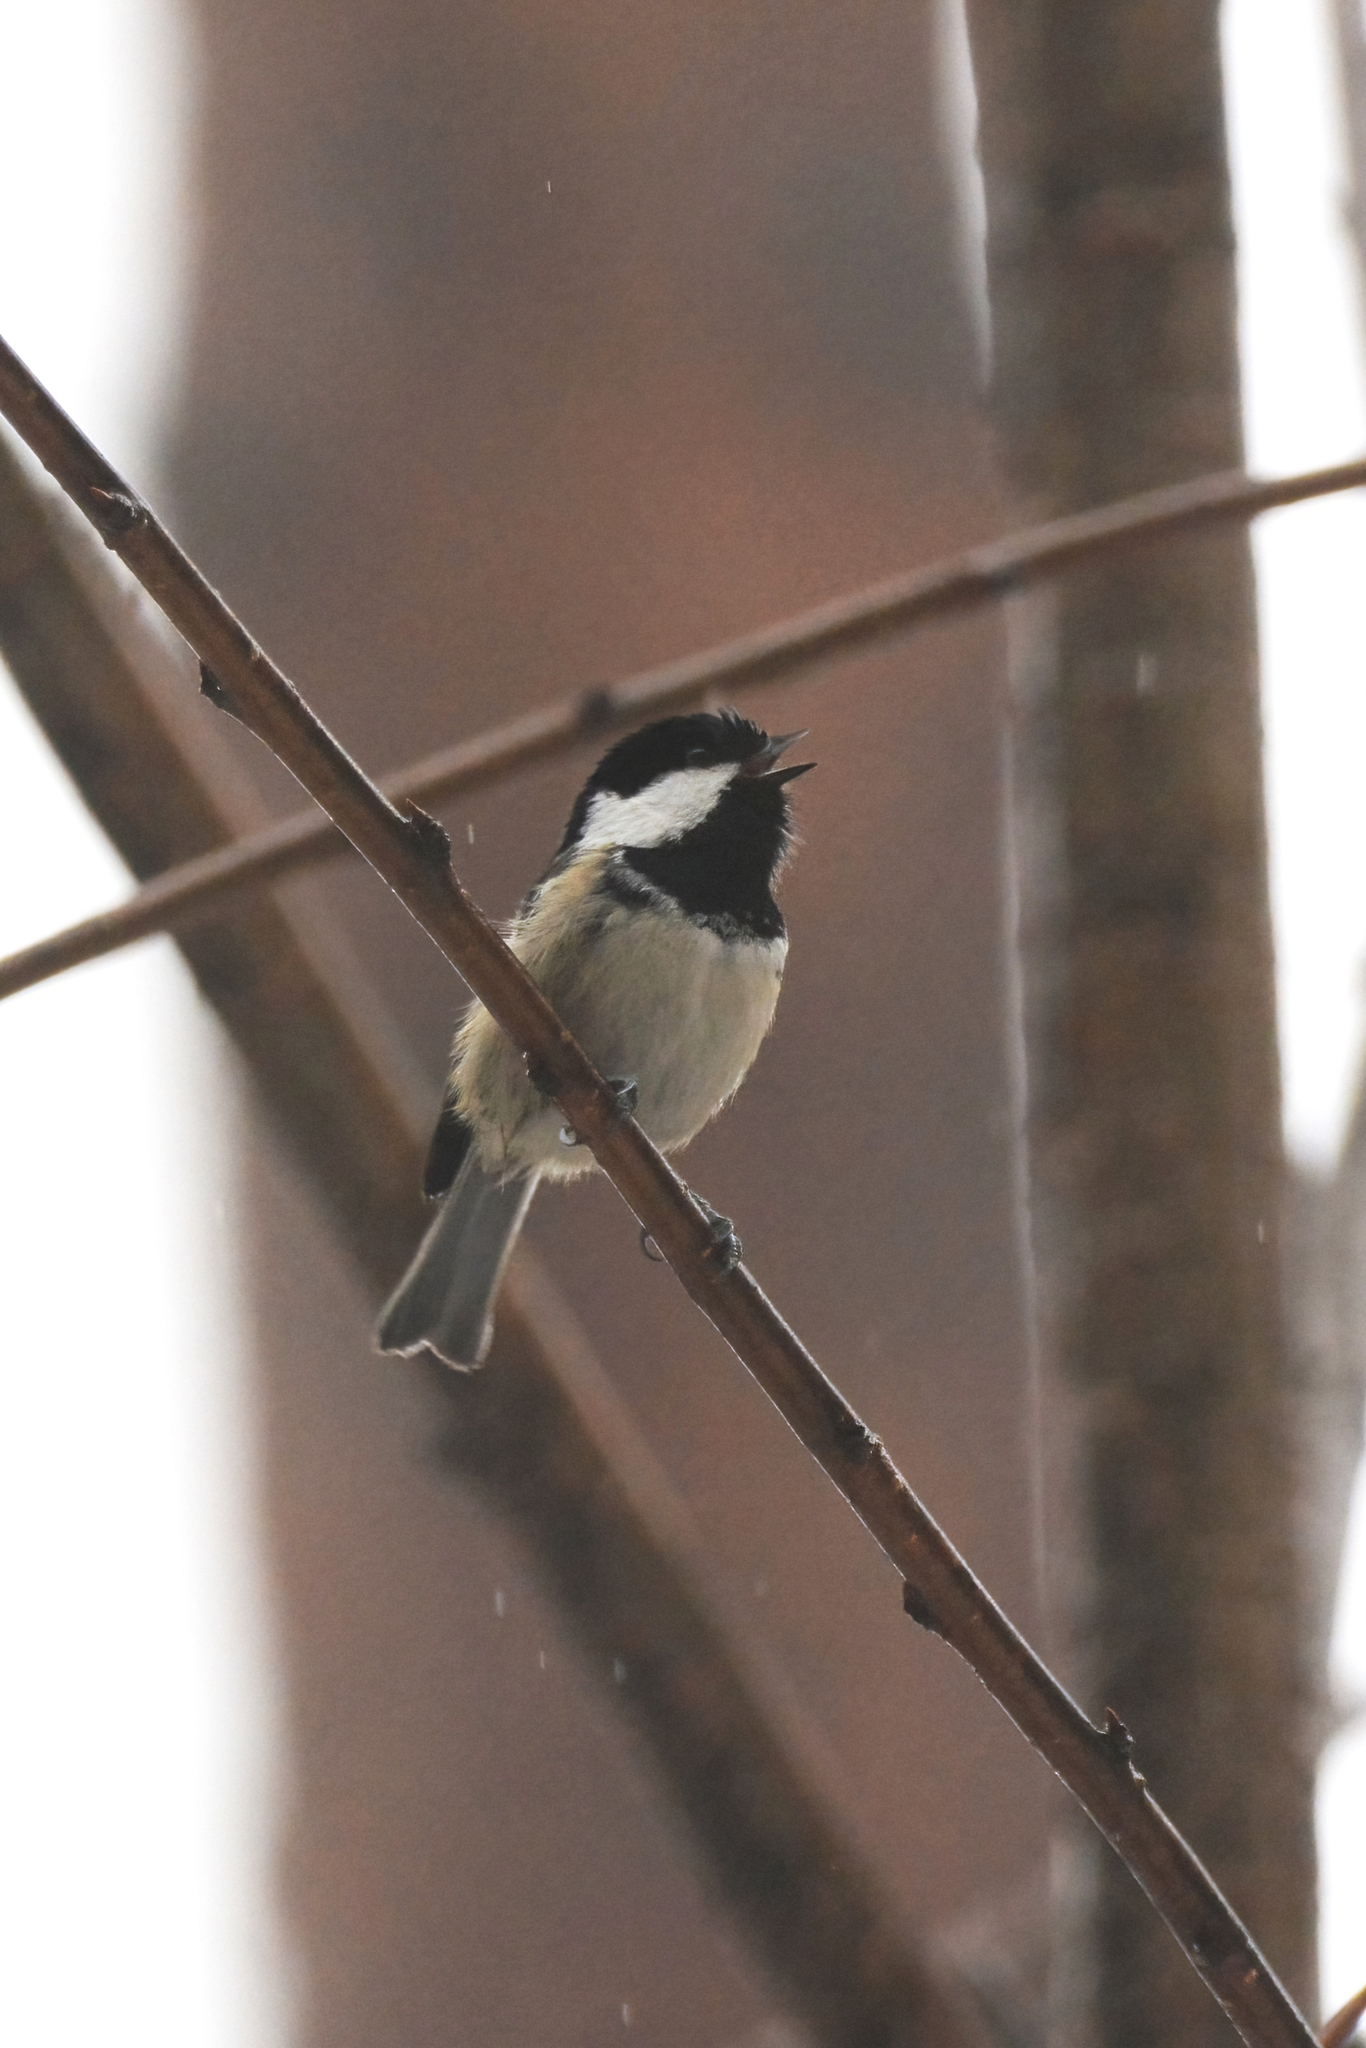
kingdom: Animalia
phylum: Chordata
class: Aves
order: Passeriformes
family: Paridae
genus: Periparus
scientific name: Periparus ater
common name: Coal tit
